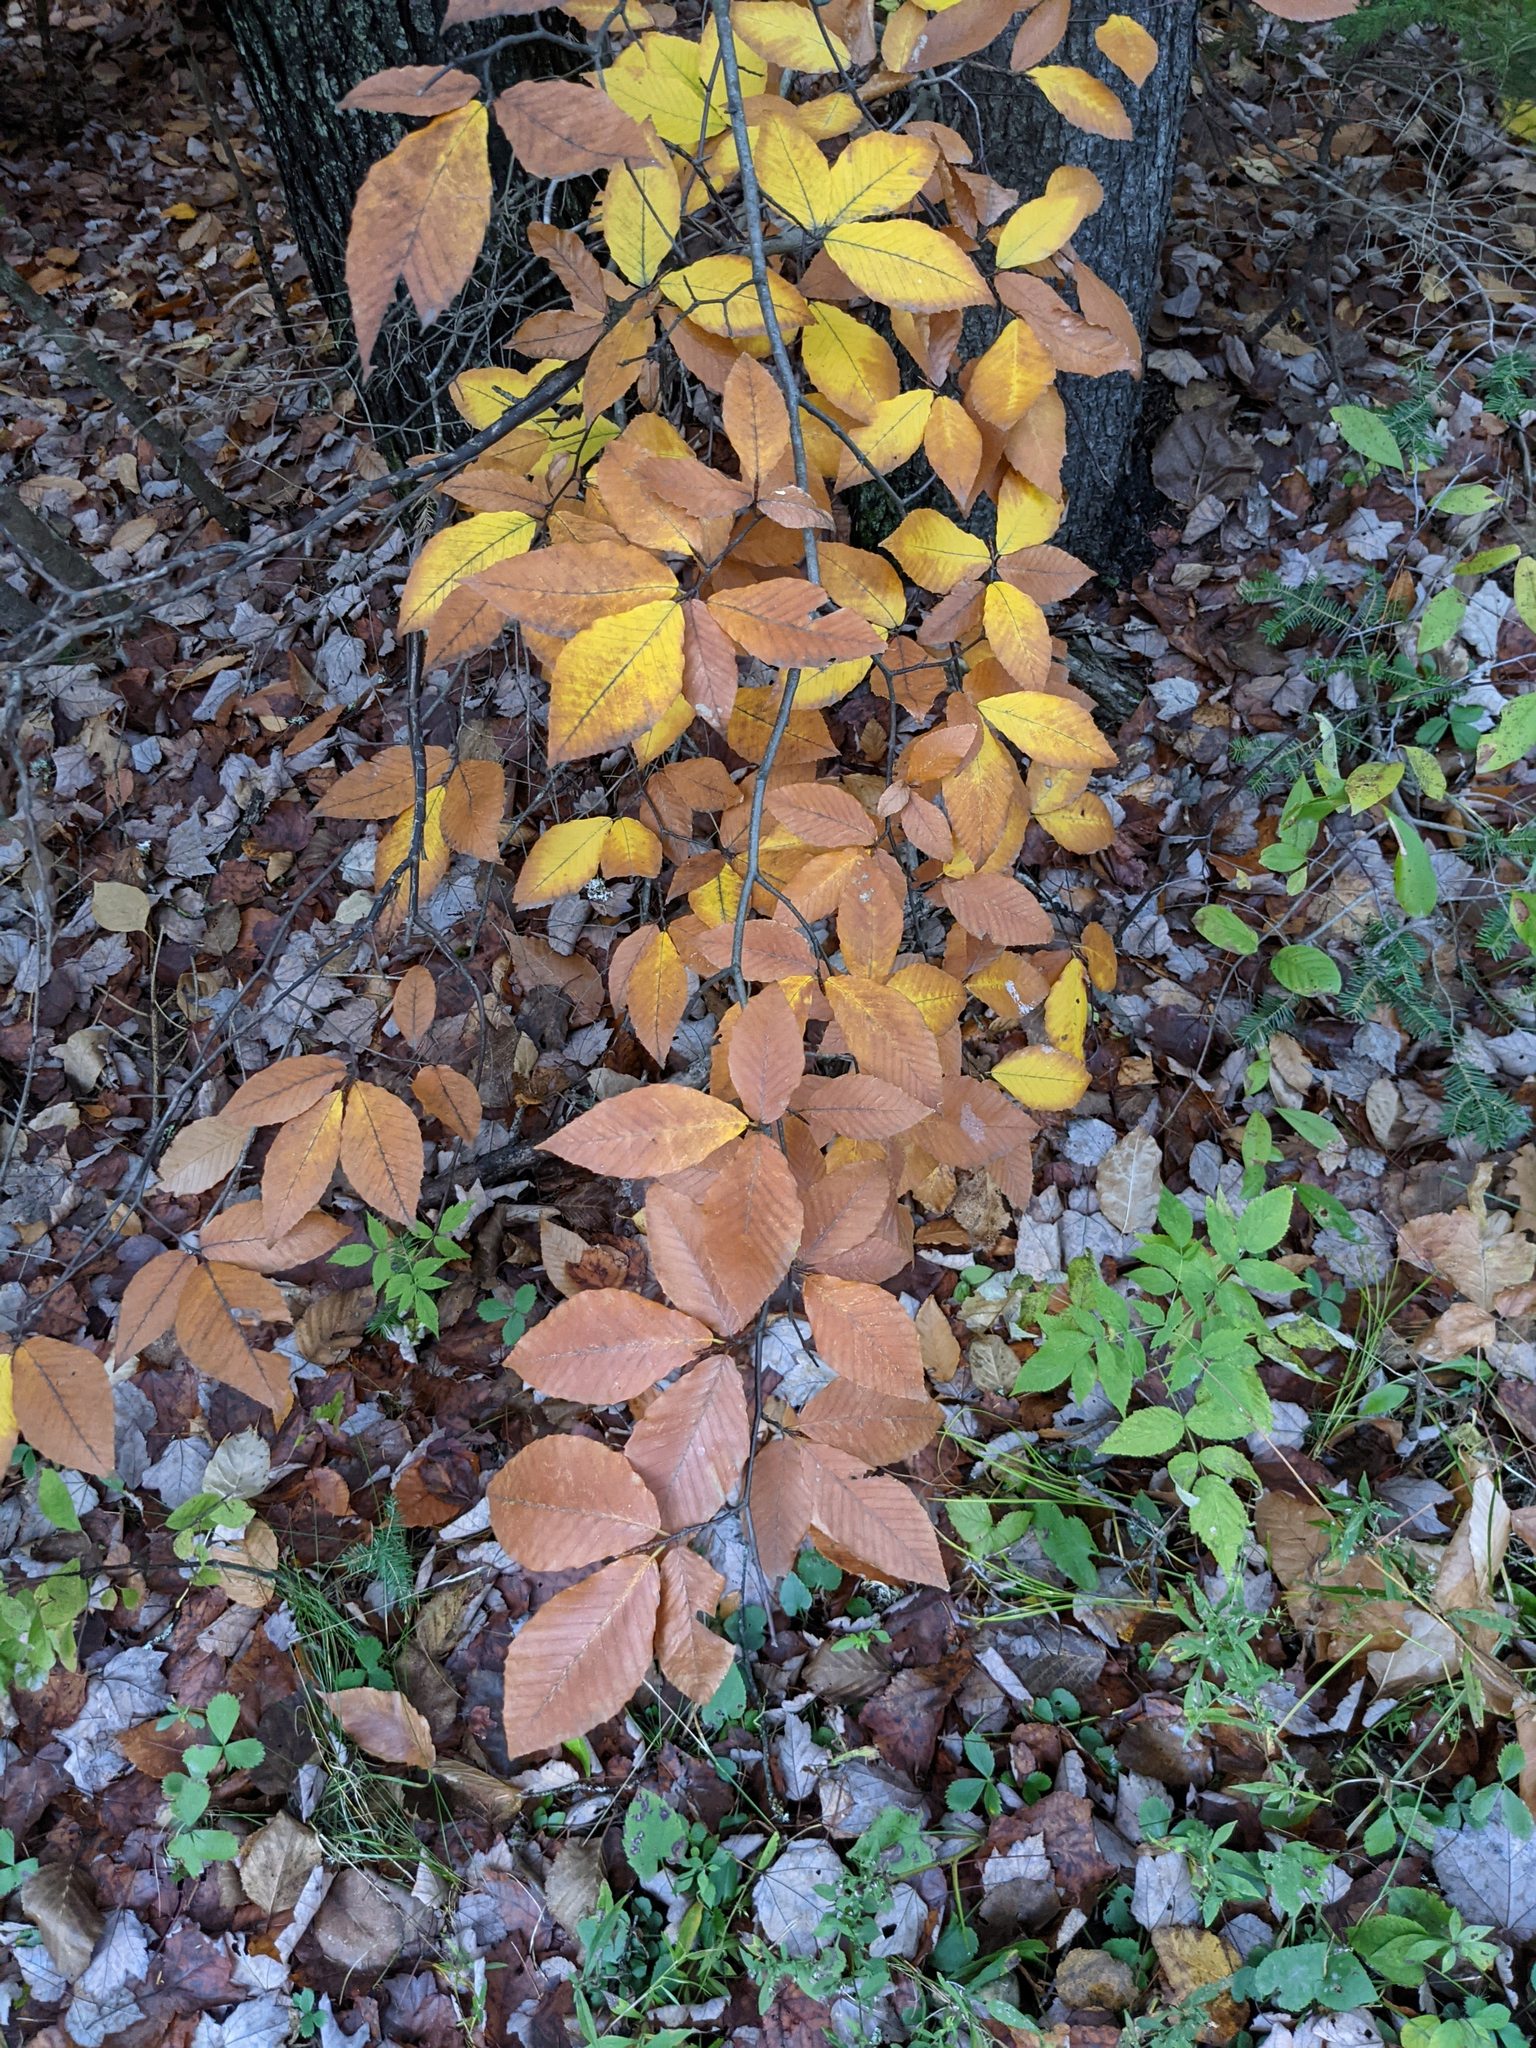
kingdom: Plantae
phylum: Tracheophyta
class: Magnoliopsida
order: Fagales
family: Fagaceae
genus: Fagus
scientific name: Fagus grandifolia
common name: American beech
